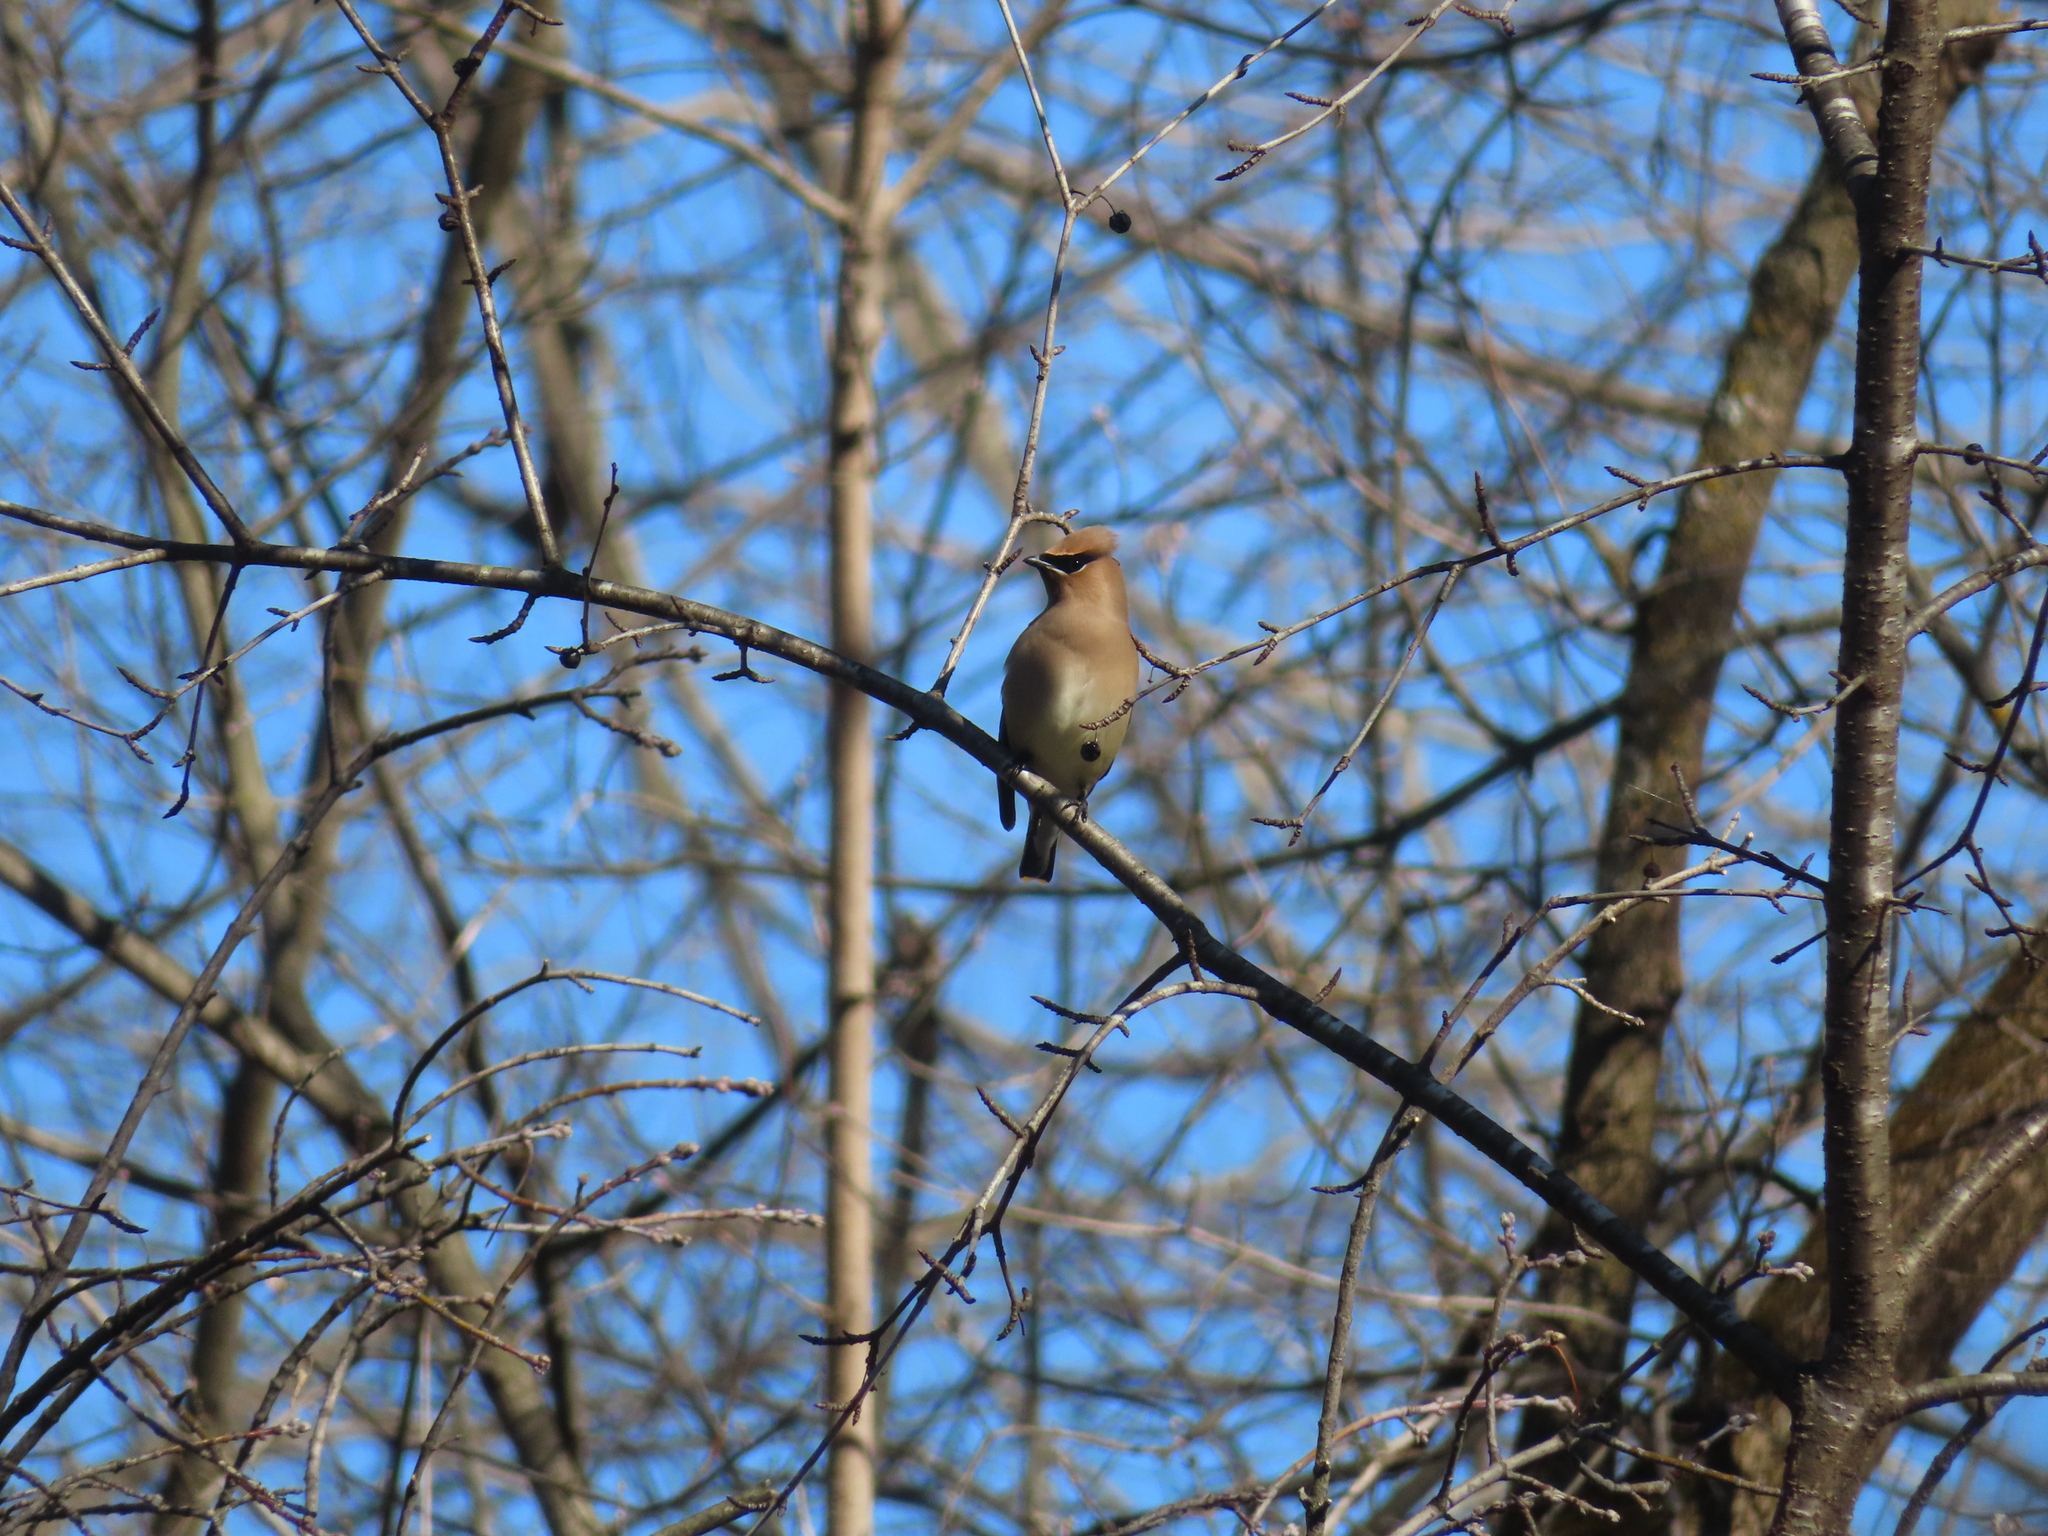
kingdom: Animalia
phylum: Chordata
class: Aves
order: Passeriformes
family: Bombycillidae
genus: Bombycilla
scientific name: Bombycilla cedrorum
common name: Cedar waxwing
